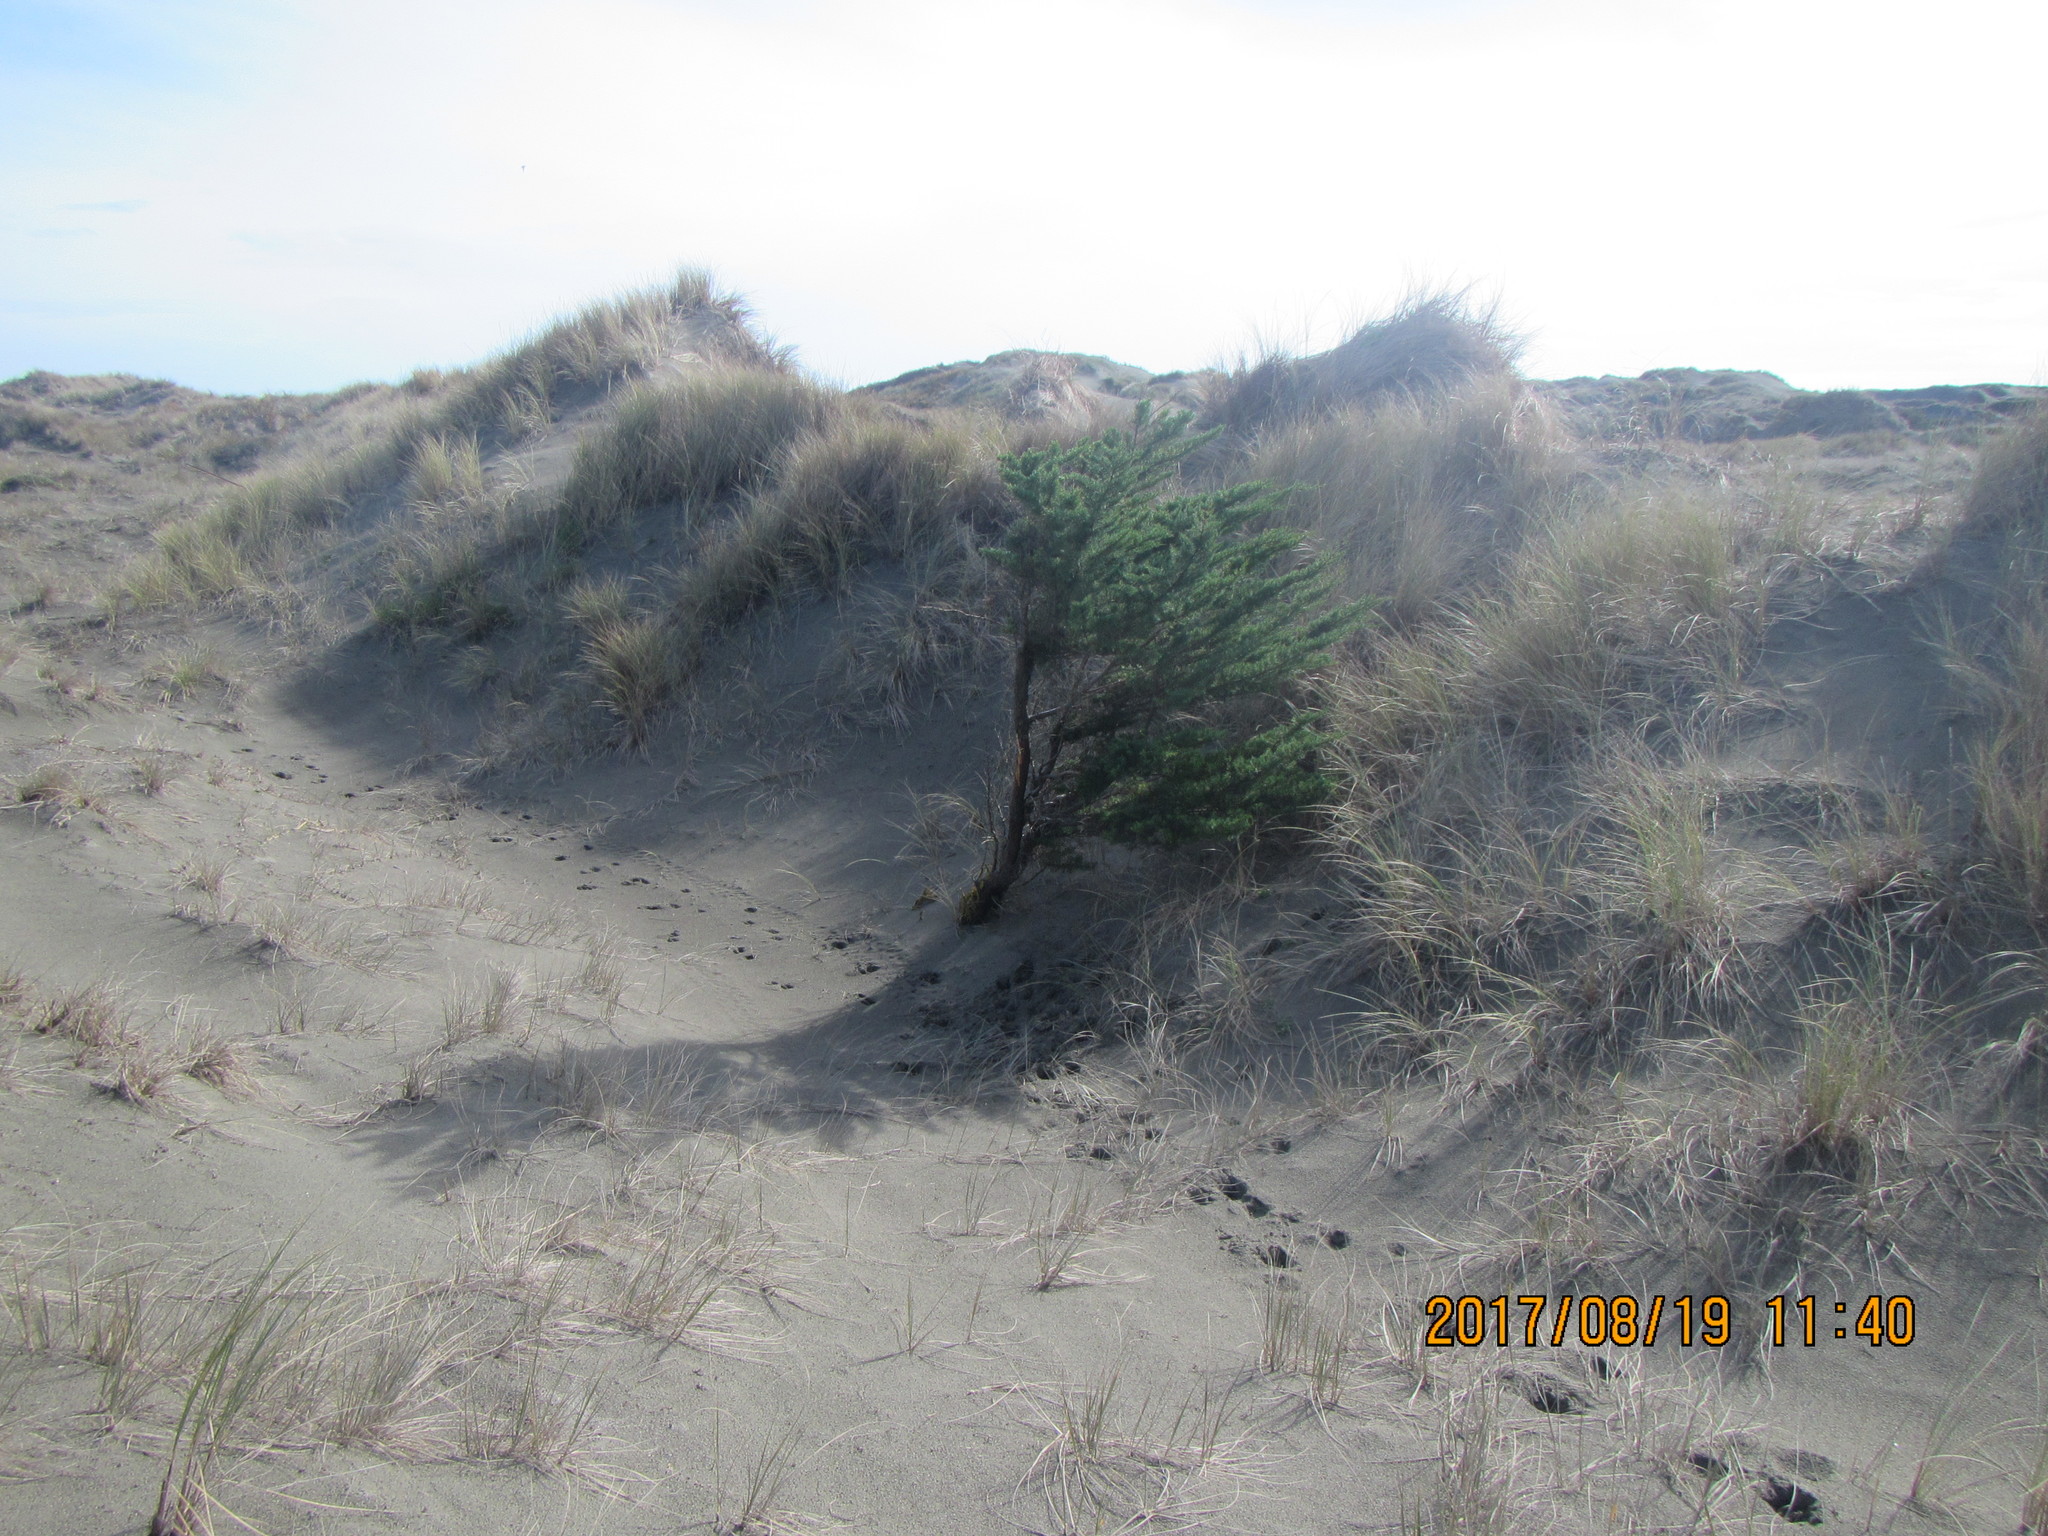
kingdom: Plantae
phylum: Tracheophyta
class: Pinopsida
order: Pinales
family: Cupressaceae
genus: Cupressus
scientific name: Cupressus macrocarpa
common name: Monterey cypress
